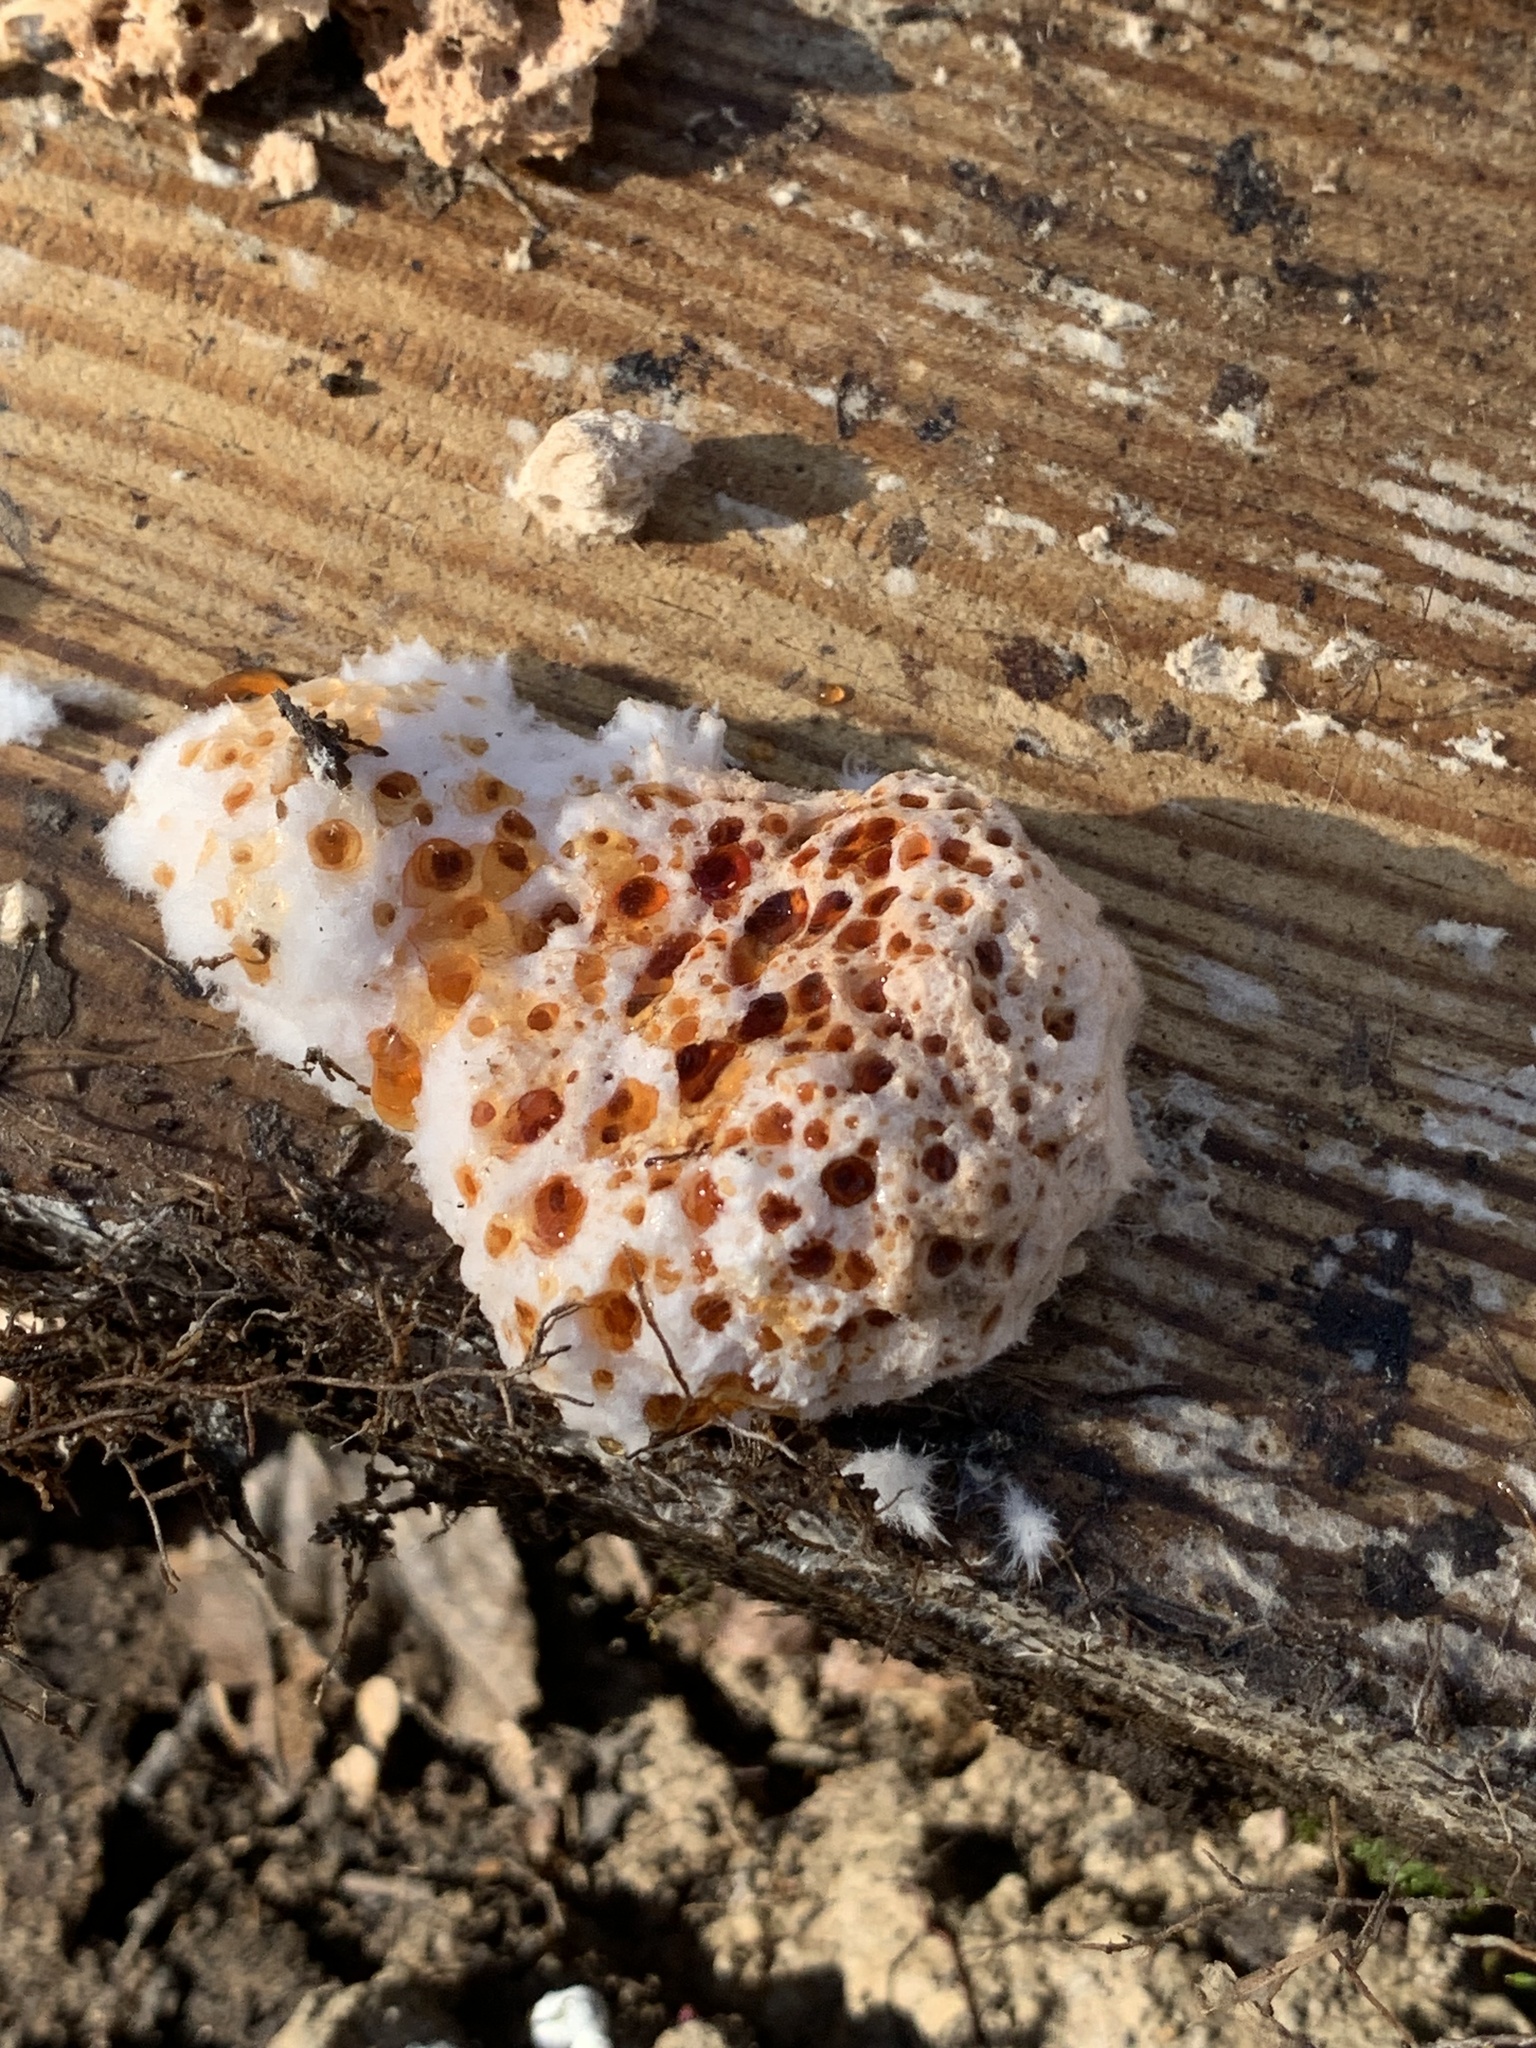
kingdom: Fungi
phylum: Basidiomycota
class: Agaricomycetes
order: Polyporales
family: Podoscyphaceae
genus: Abortiporus
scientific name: Abortiporus biennis
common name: Blushing rosette
